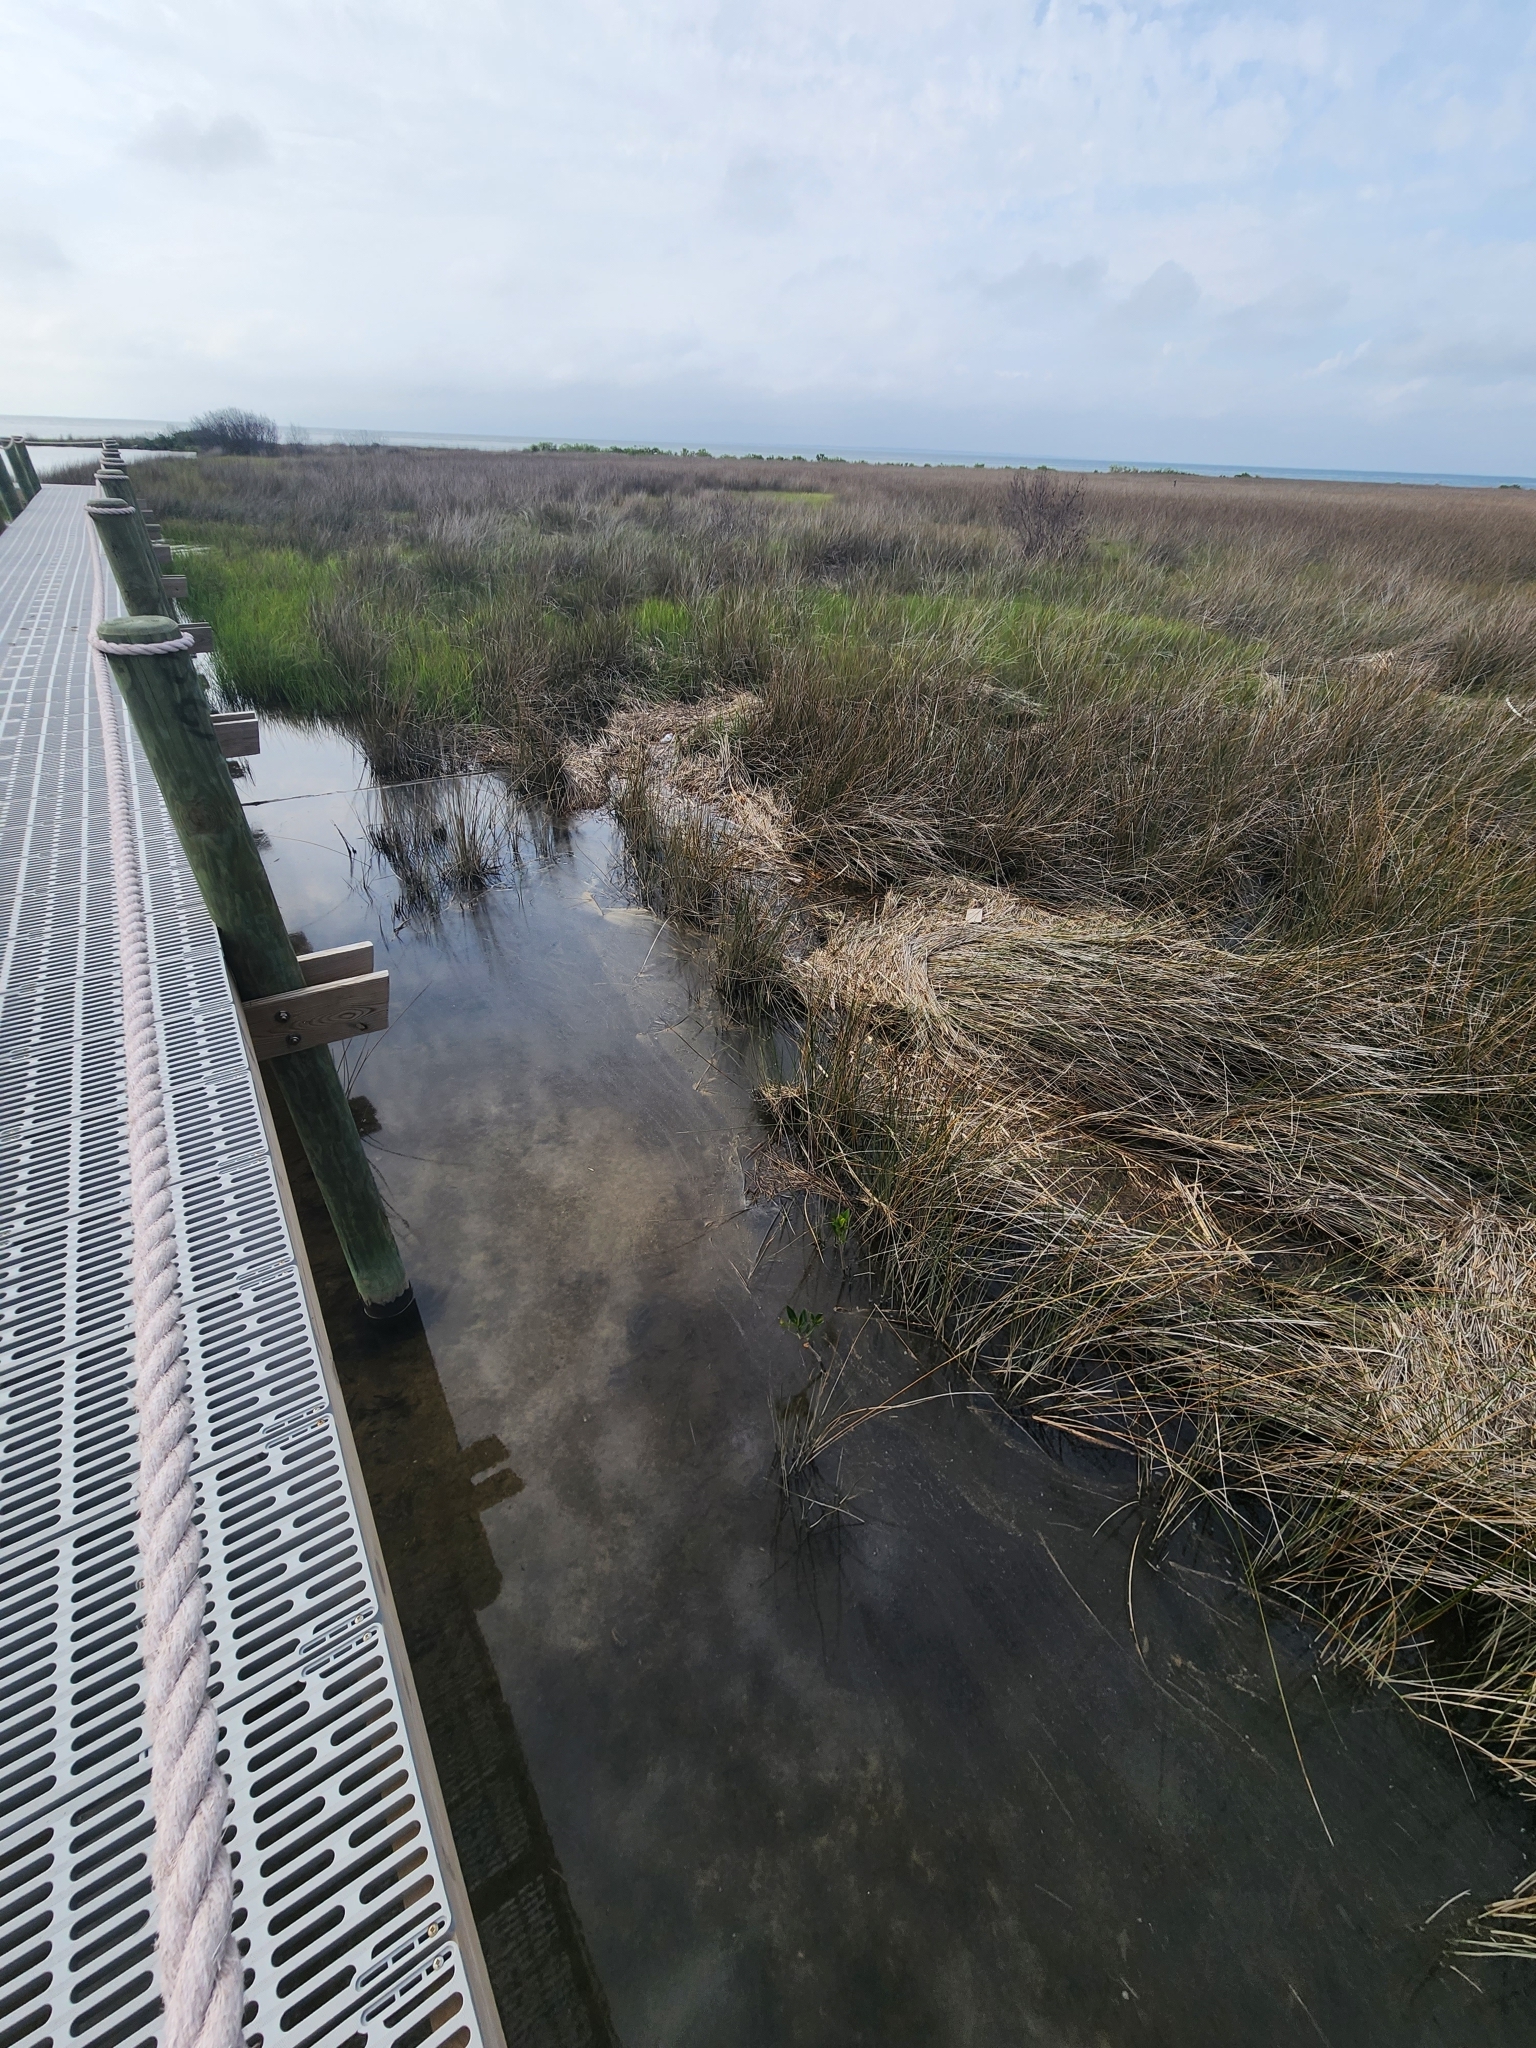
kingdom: Plantae
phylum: Tracheophyta
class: Magnoliopsida
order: Malpighiales
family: Rhizophoraceae
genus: Rhizophora
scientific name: Rhizophora mangle
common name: Red mangrove
